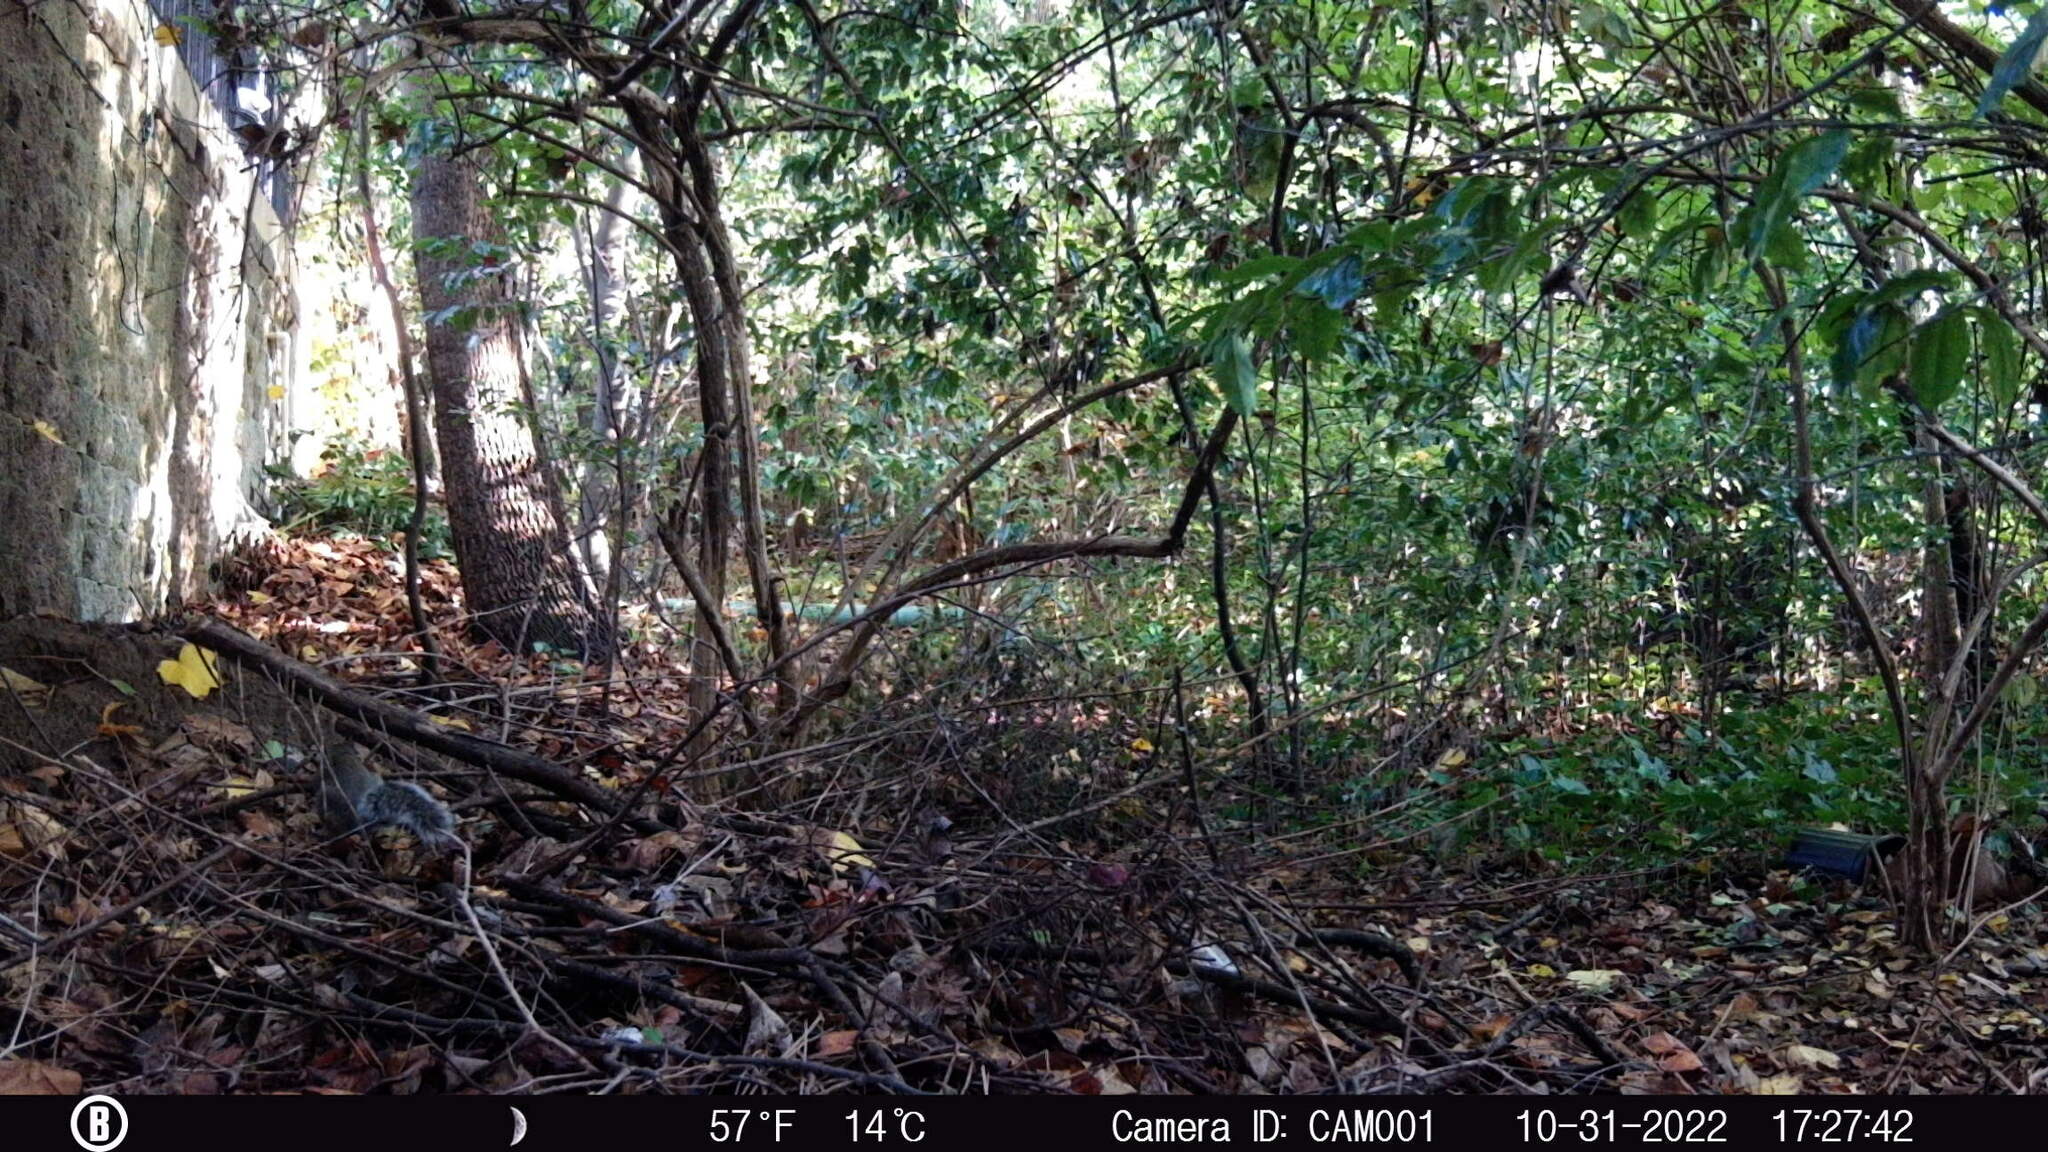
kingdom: Animalia
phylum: Chordata
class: Mammalia
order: Rodentia
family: Sciuridae
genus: Sciurus
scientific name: Sciurus carolinensis
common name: Eastern gray squirrel
